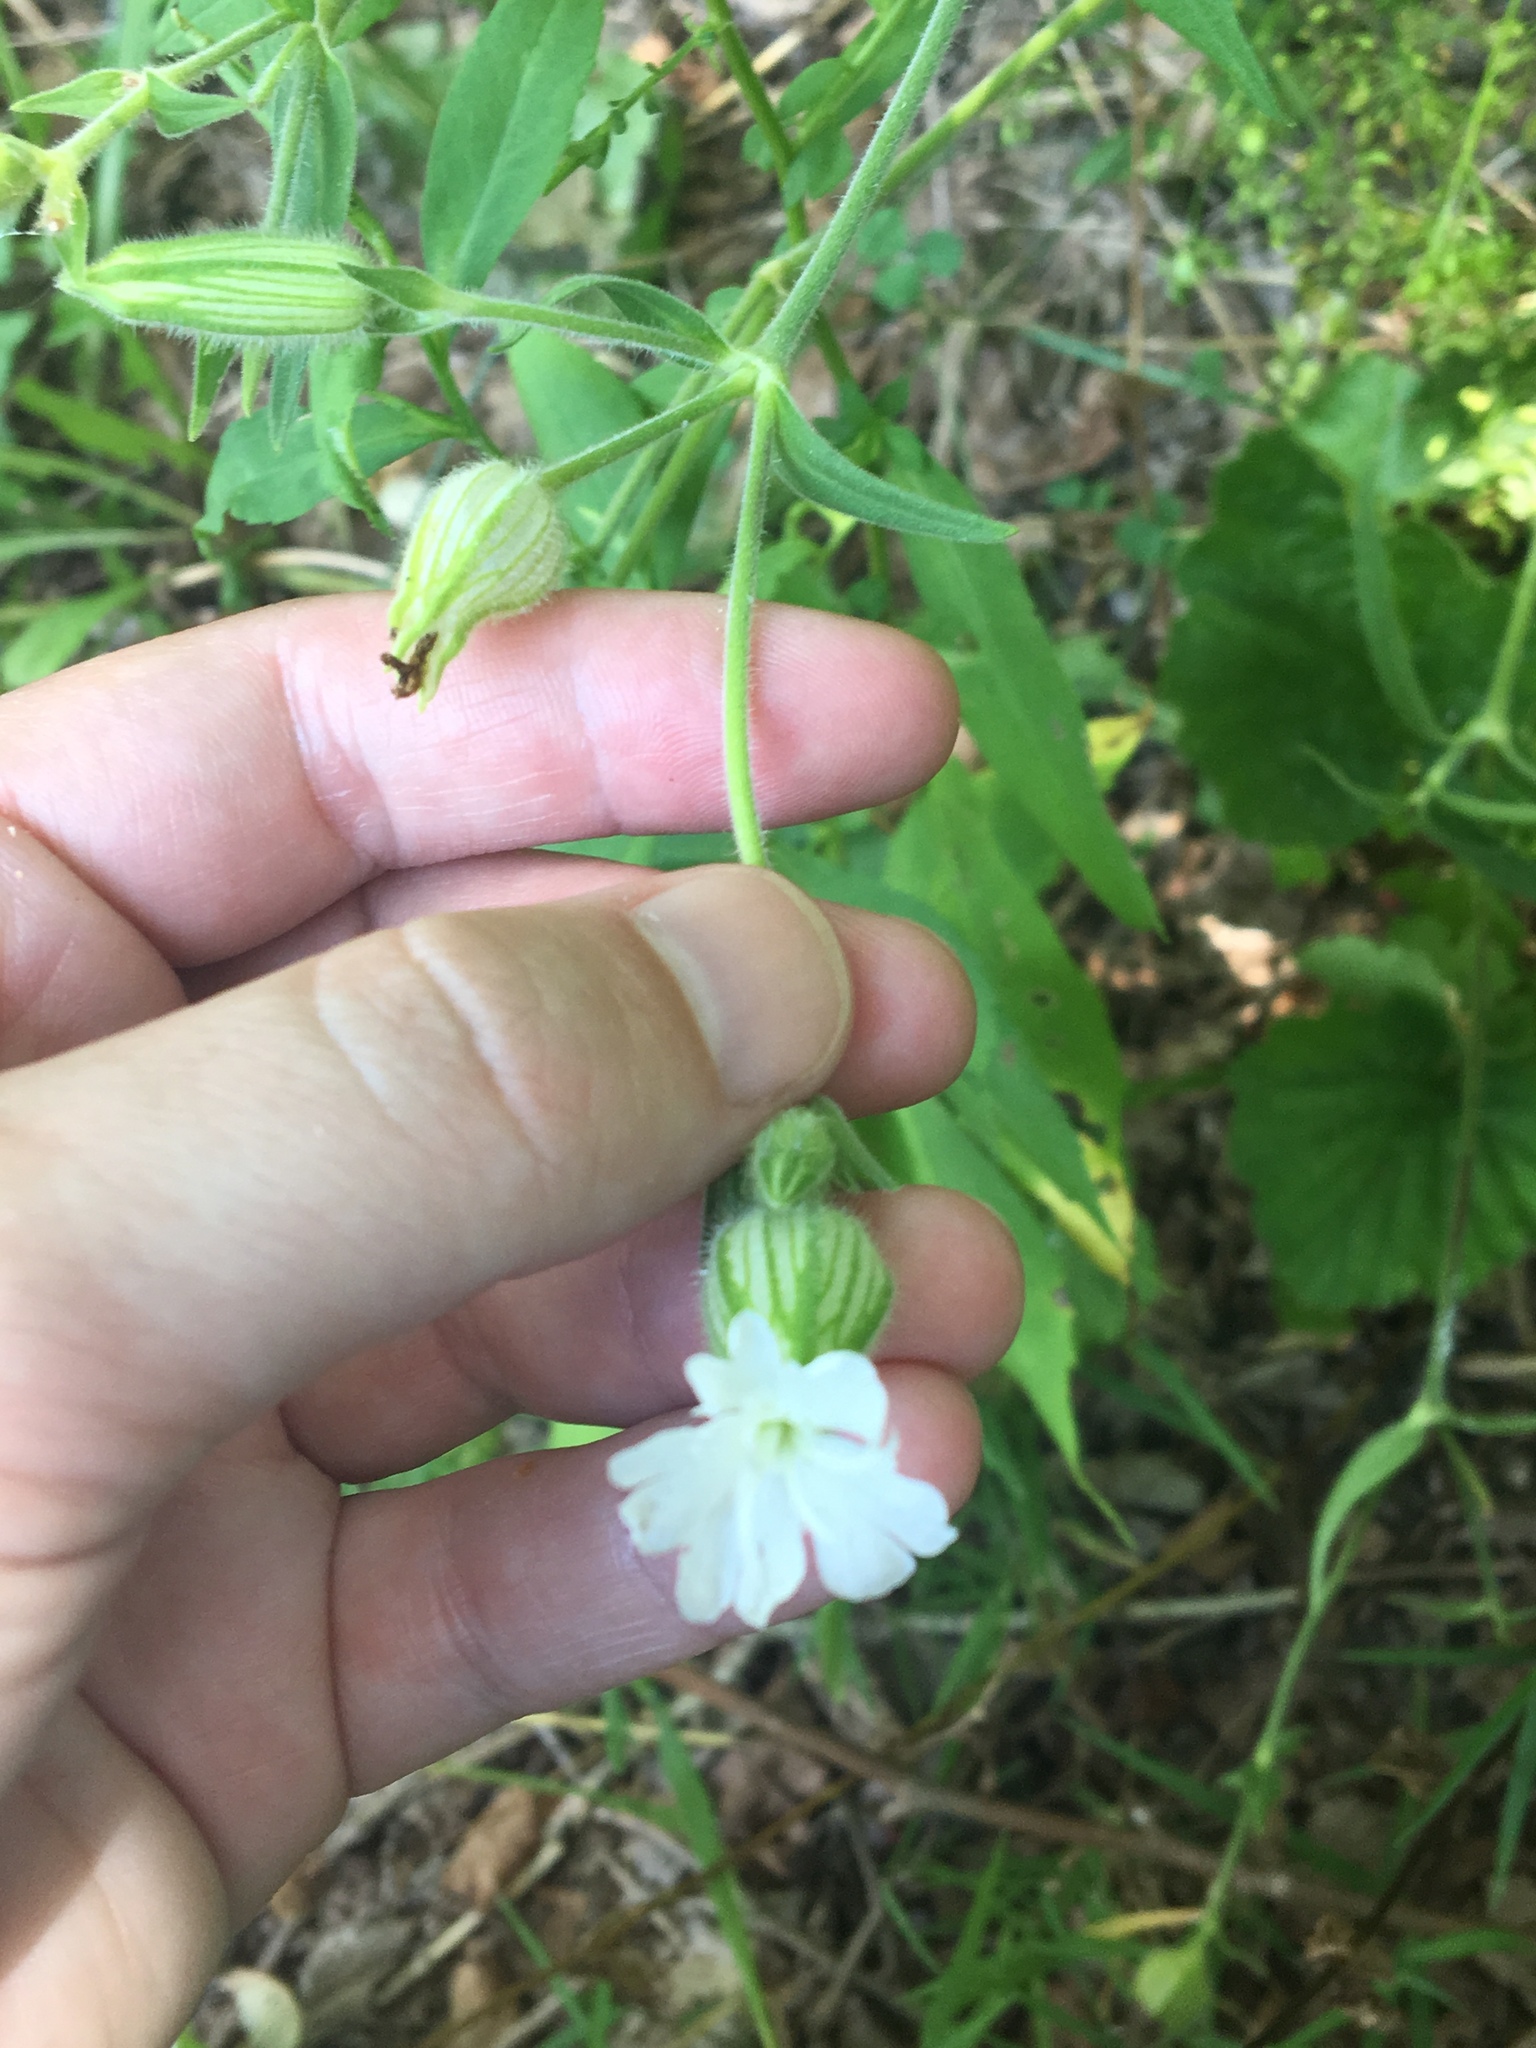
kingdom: Plantae
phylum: Tracheophyta
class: Magnoliopsida
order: Caryophyllales
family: Caryophyllaceae
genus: Silene
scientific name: Silene latifolia
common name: White campion
